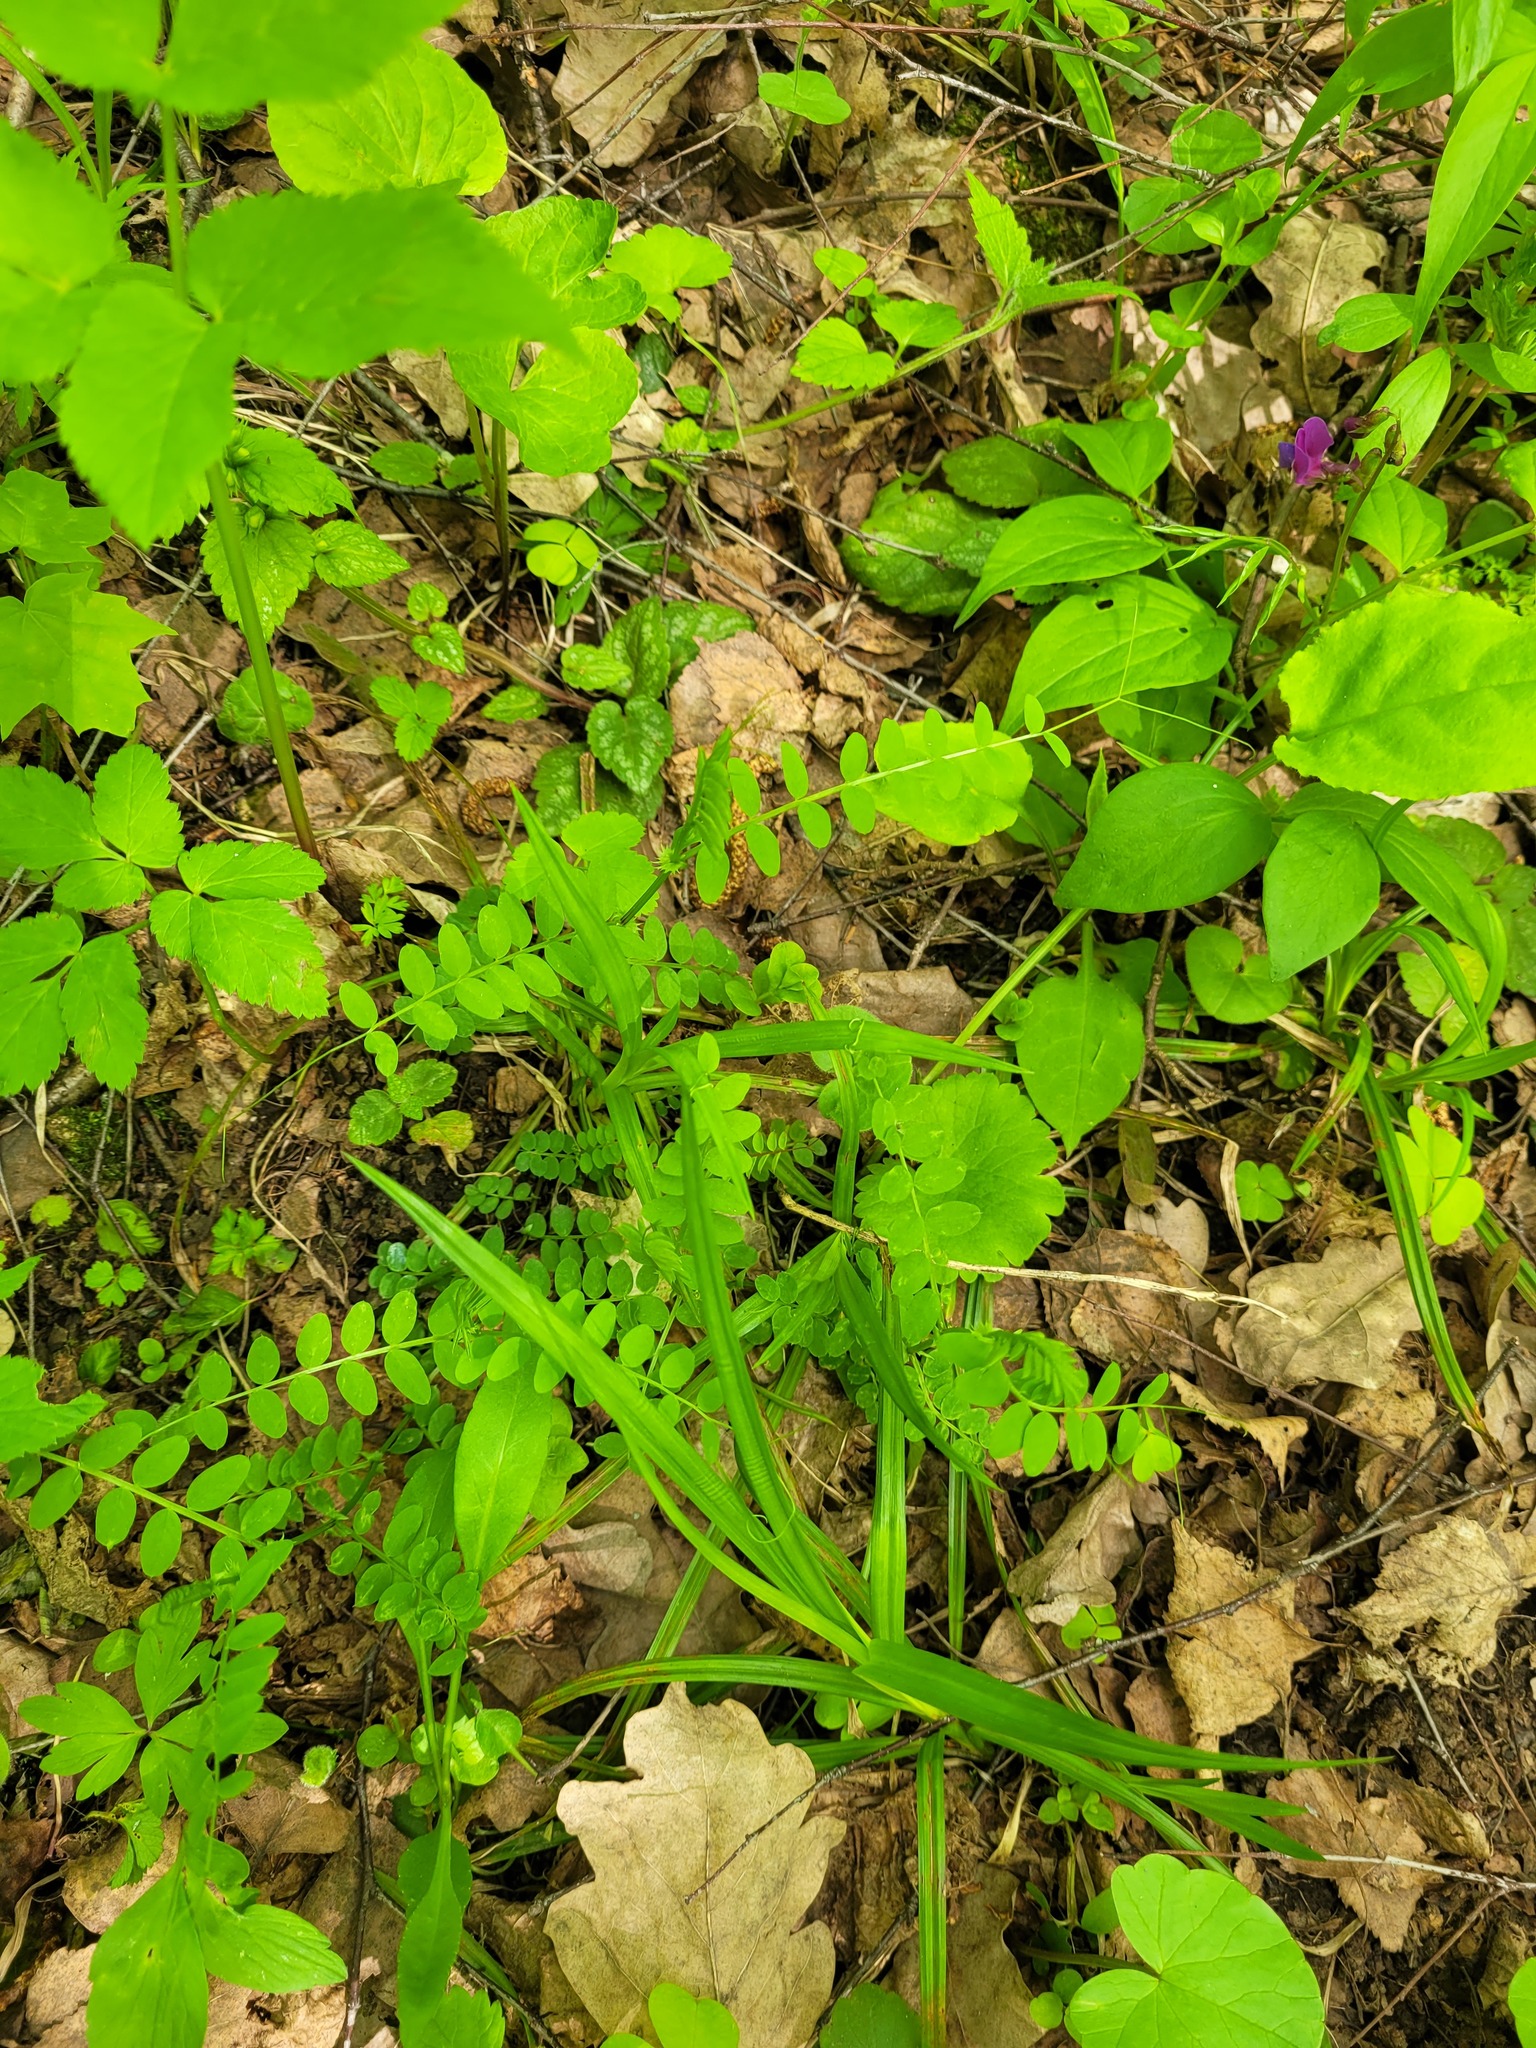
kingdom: Plantae
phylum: Tracheophyta
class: Magnoliopsida
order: Fabales
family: Fabaceae
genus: Vicia
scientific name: Vicia sylvatica
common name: Wood vetch
